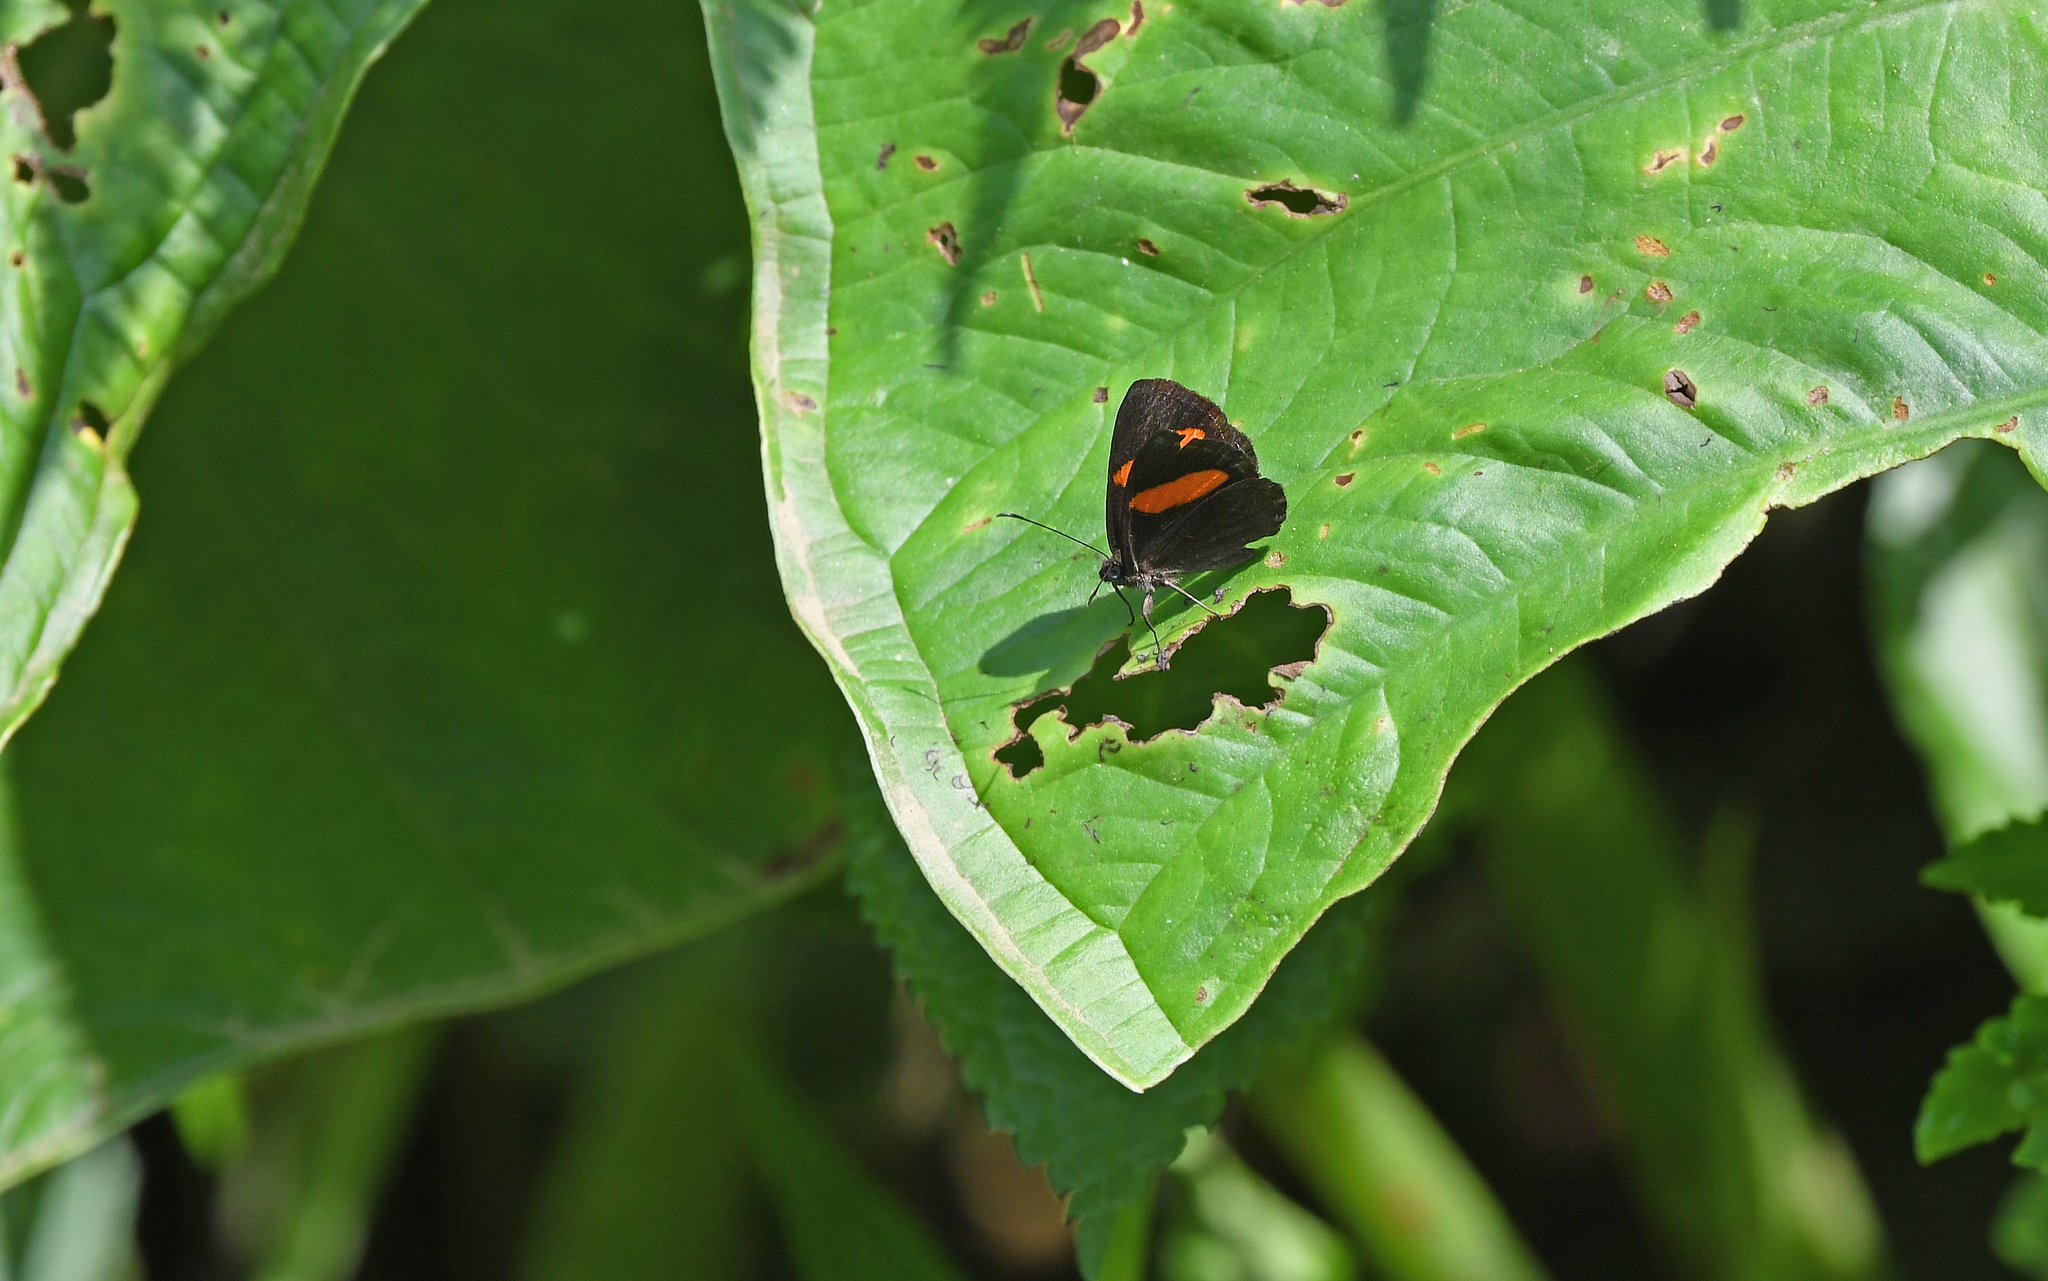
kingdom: Animalia
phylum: Arthropoda
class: Insecta
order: Lepidoptera
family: Riodinidae
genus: Crocozona
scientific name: Crocozona fasciata
